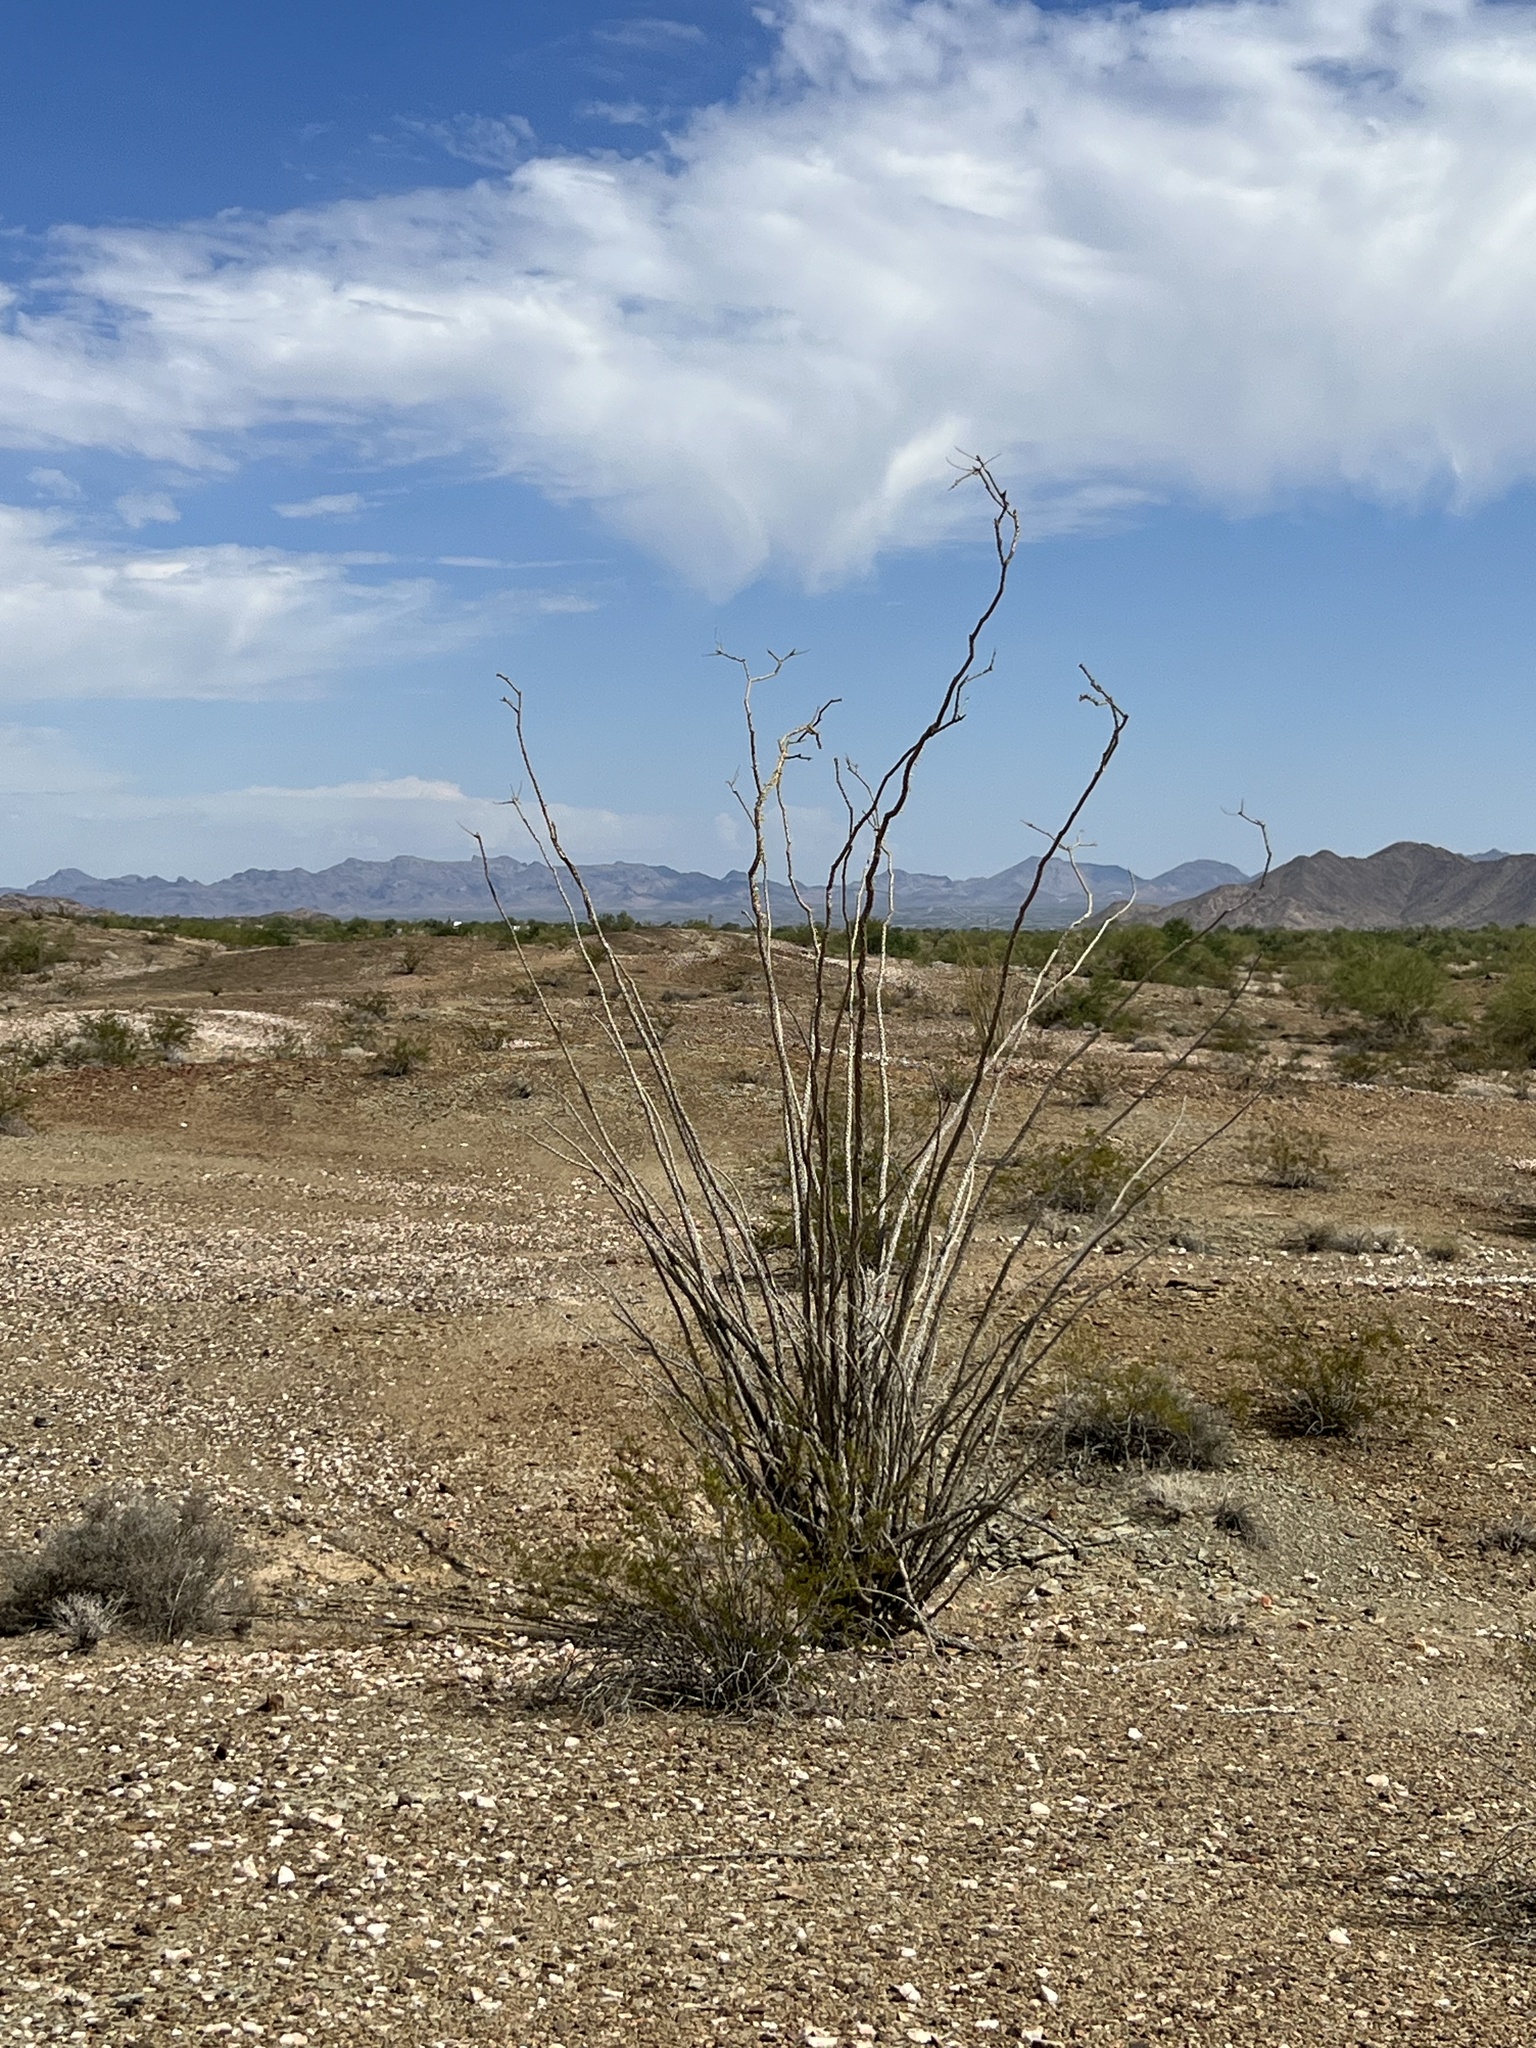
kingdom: Plantae
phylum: Tracheophyta
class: Magnoliopsida
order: Ericales
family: Fouquieriaceae
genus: Fouquieria
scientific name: Fouquieria splendens
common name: Vine-cactus
